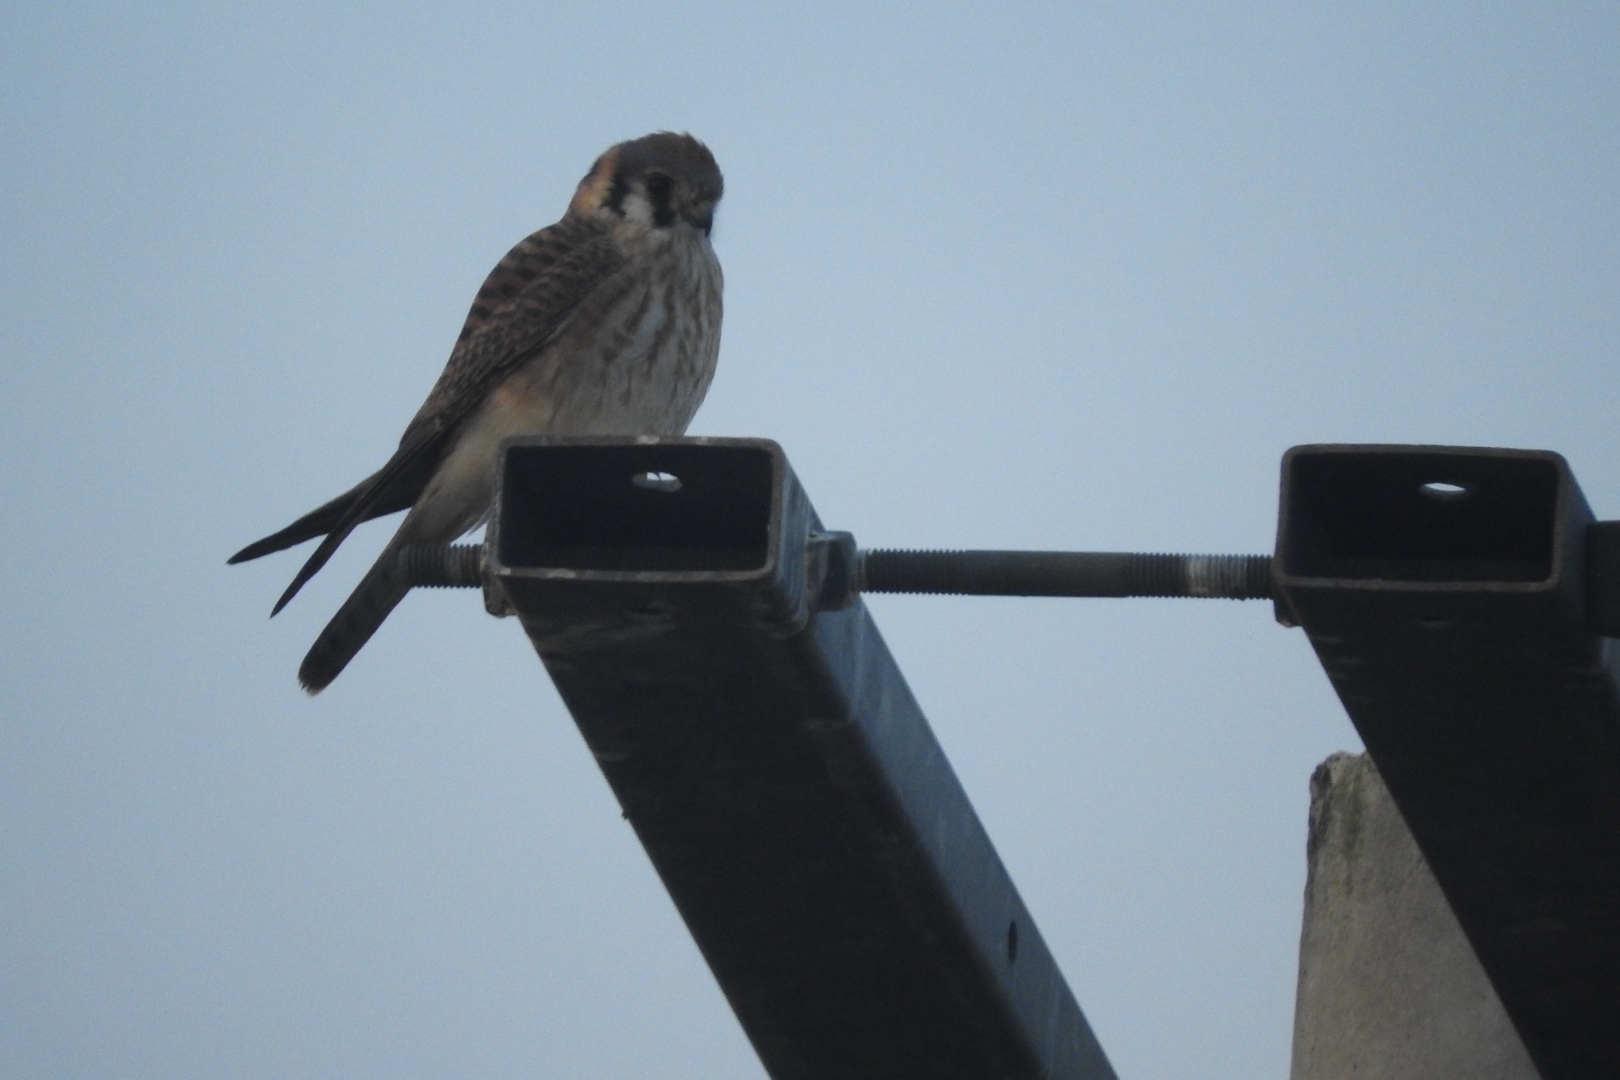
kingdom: Animalia
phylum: Chordata
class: Aves
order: Falconiformes
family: Falconidae
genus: Falco
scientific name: Falco sparverius
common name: American kestrel
